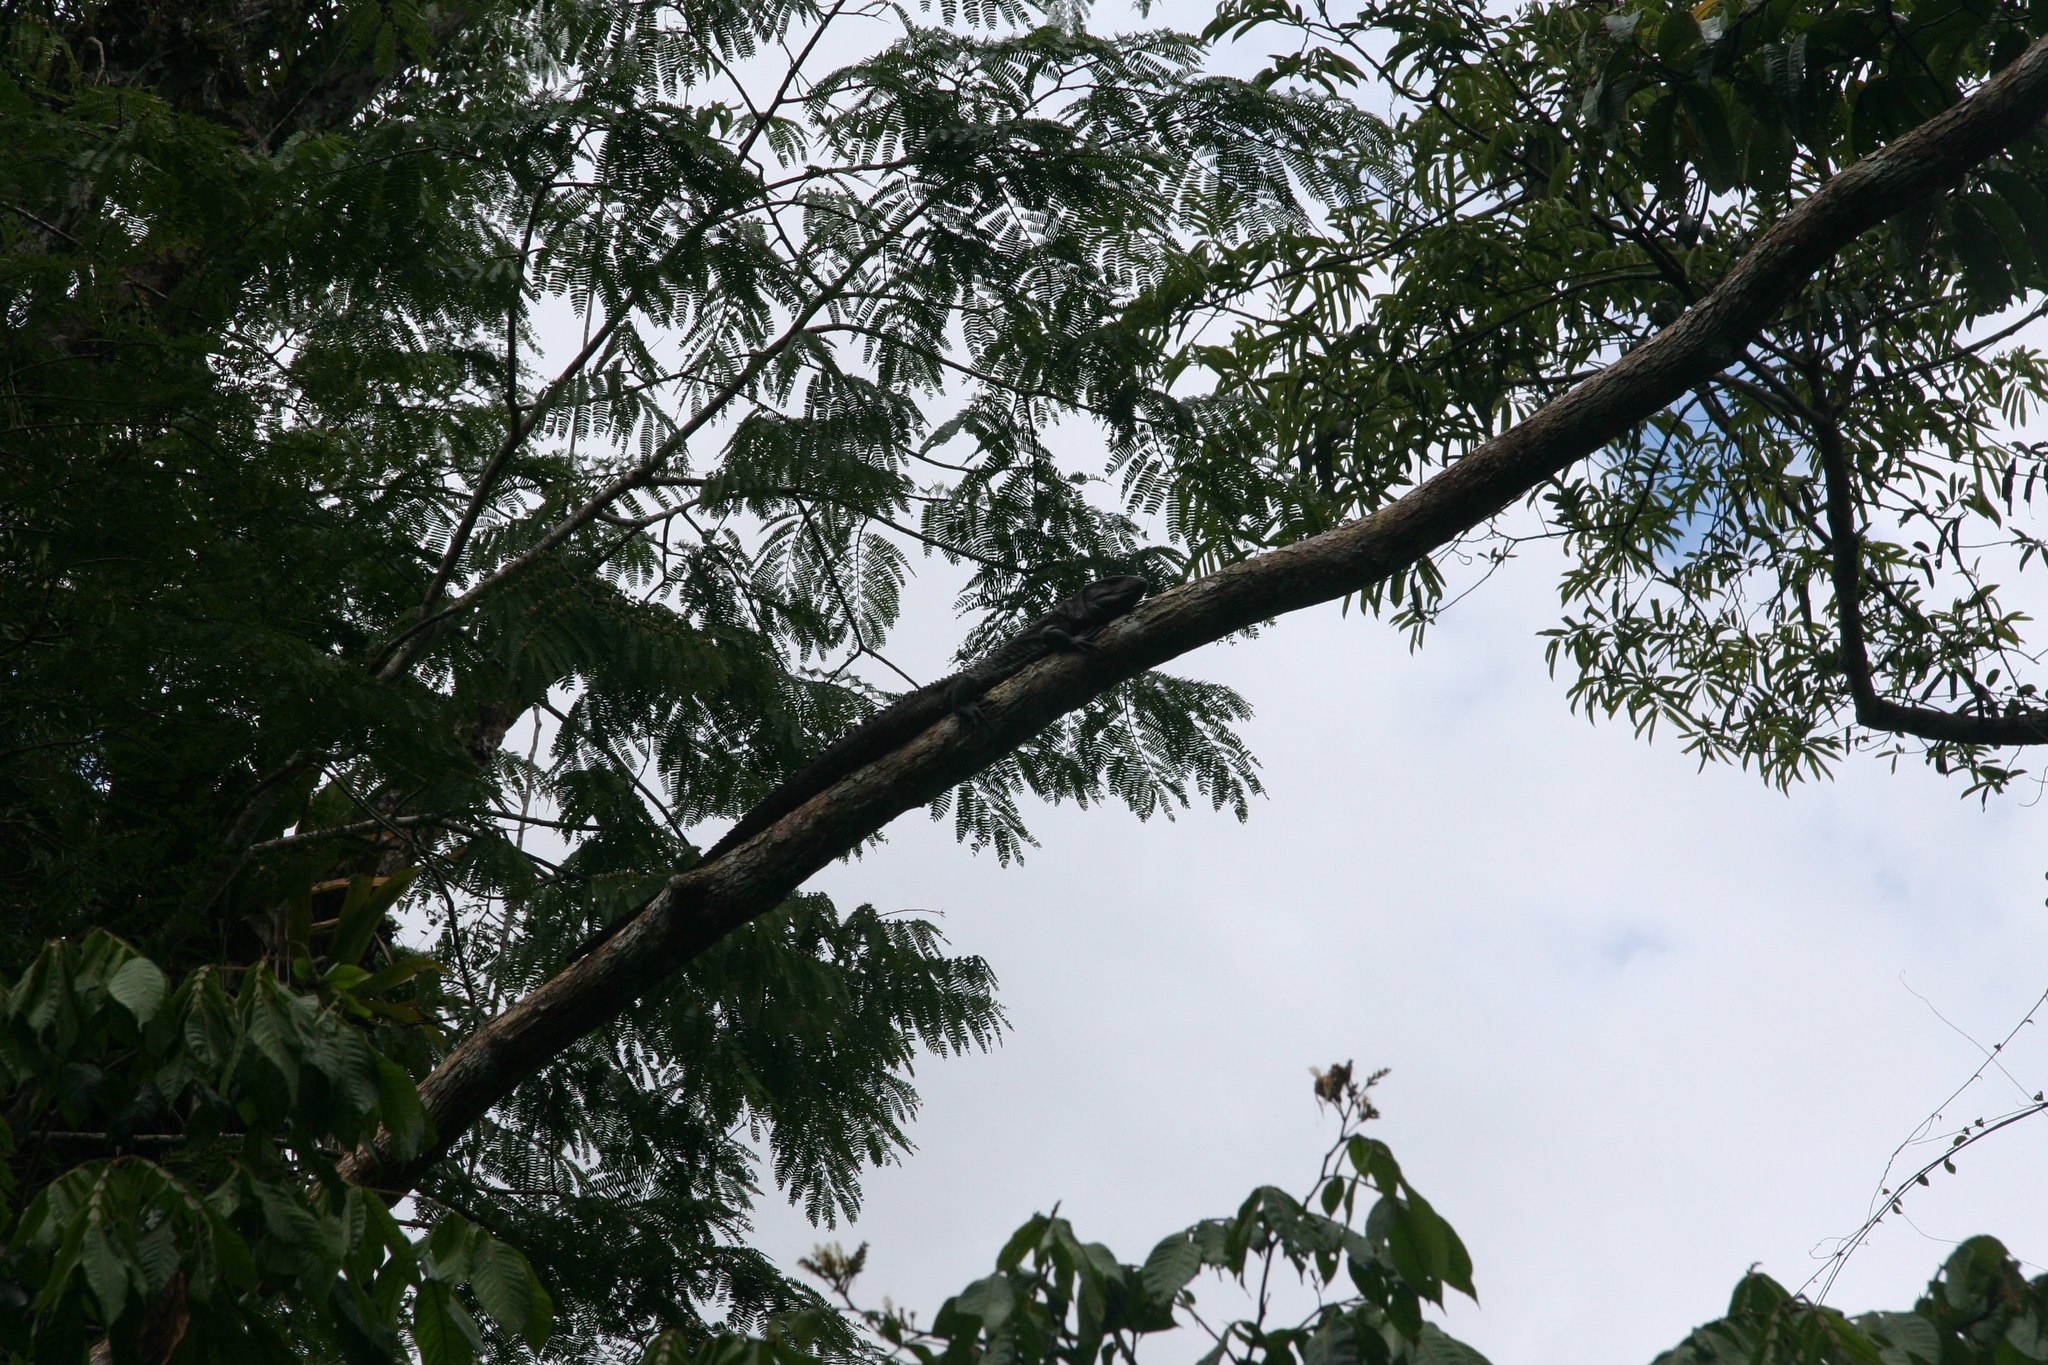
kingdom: Animalia
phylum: Chordata
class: Squamata
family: Teiidae
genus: Dracaena
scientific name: Dracaena guianensis
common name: Guyana caiman lizard
